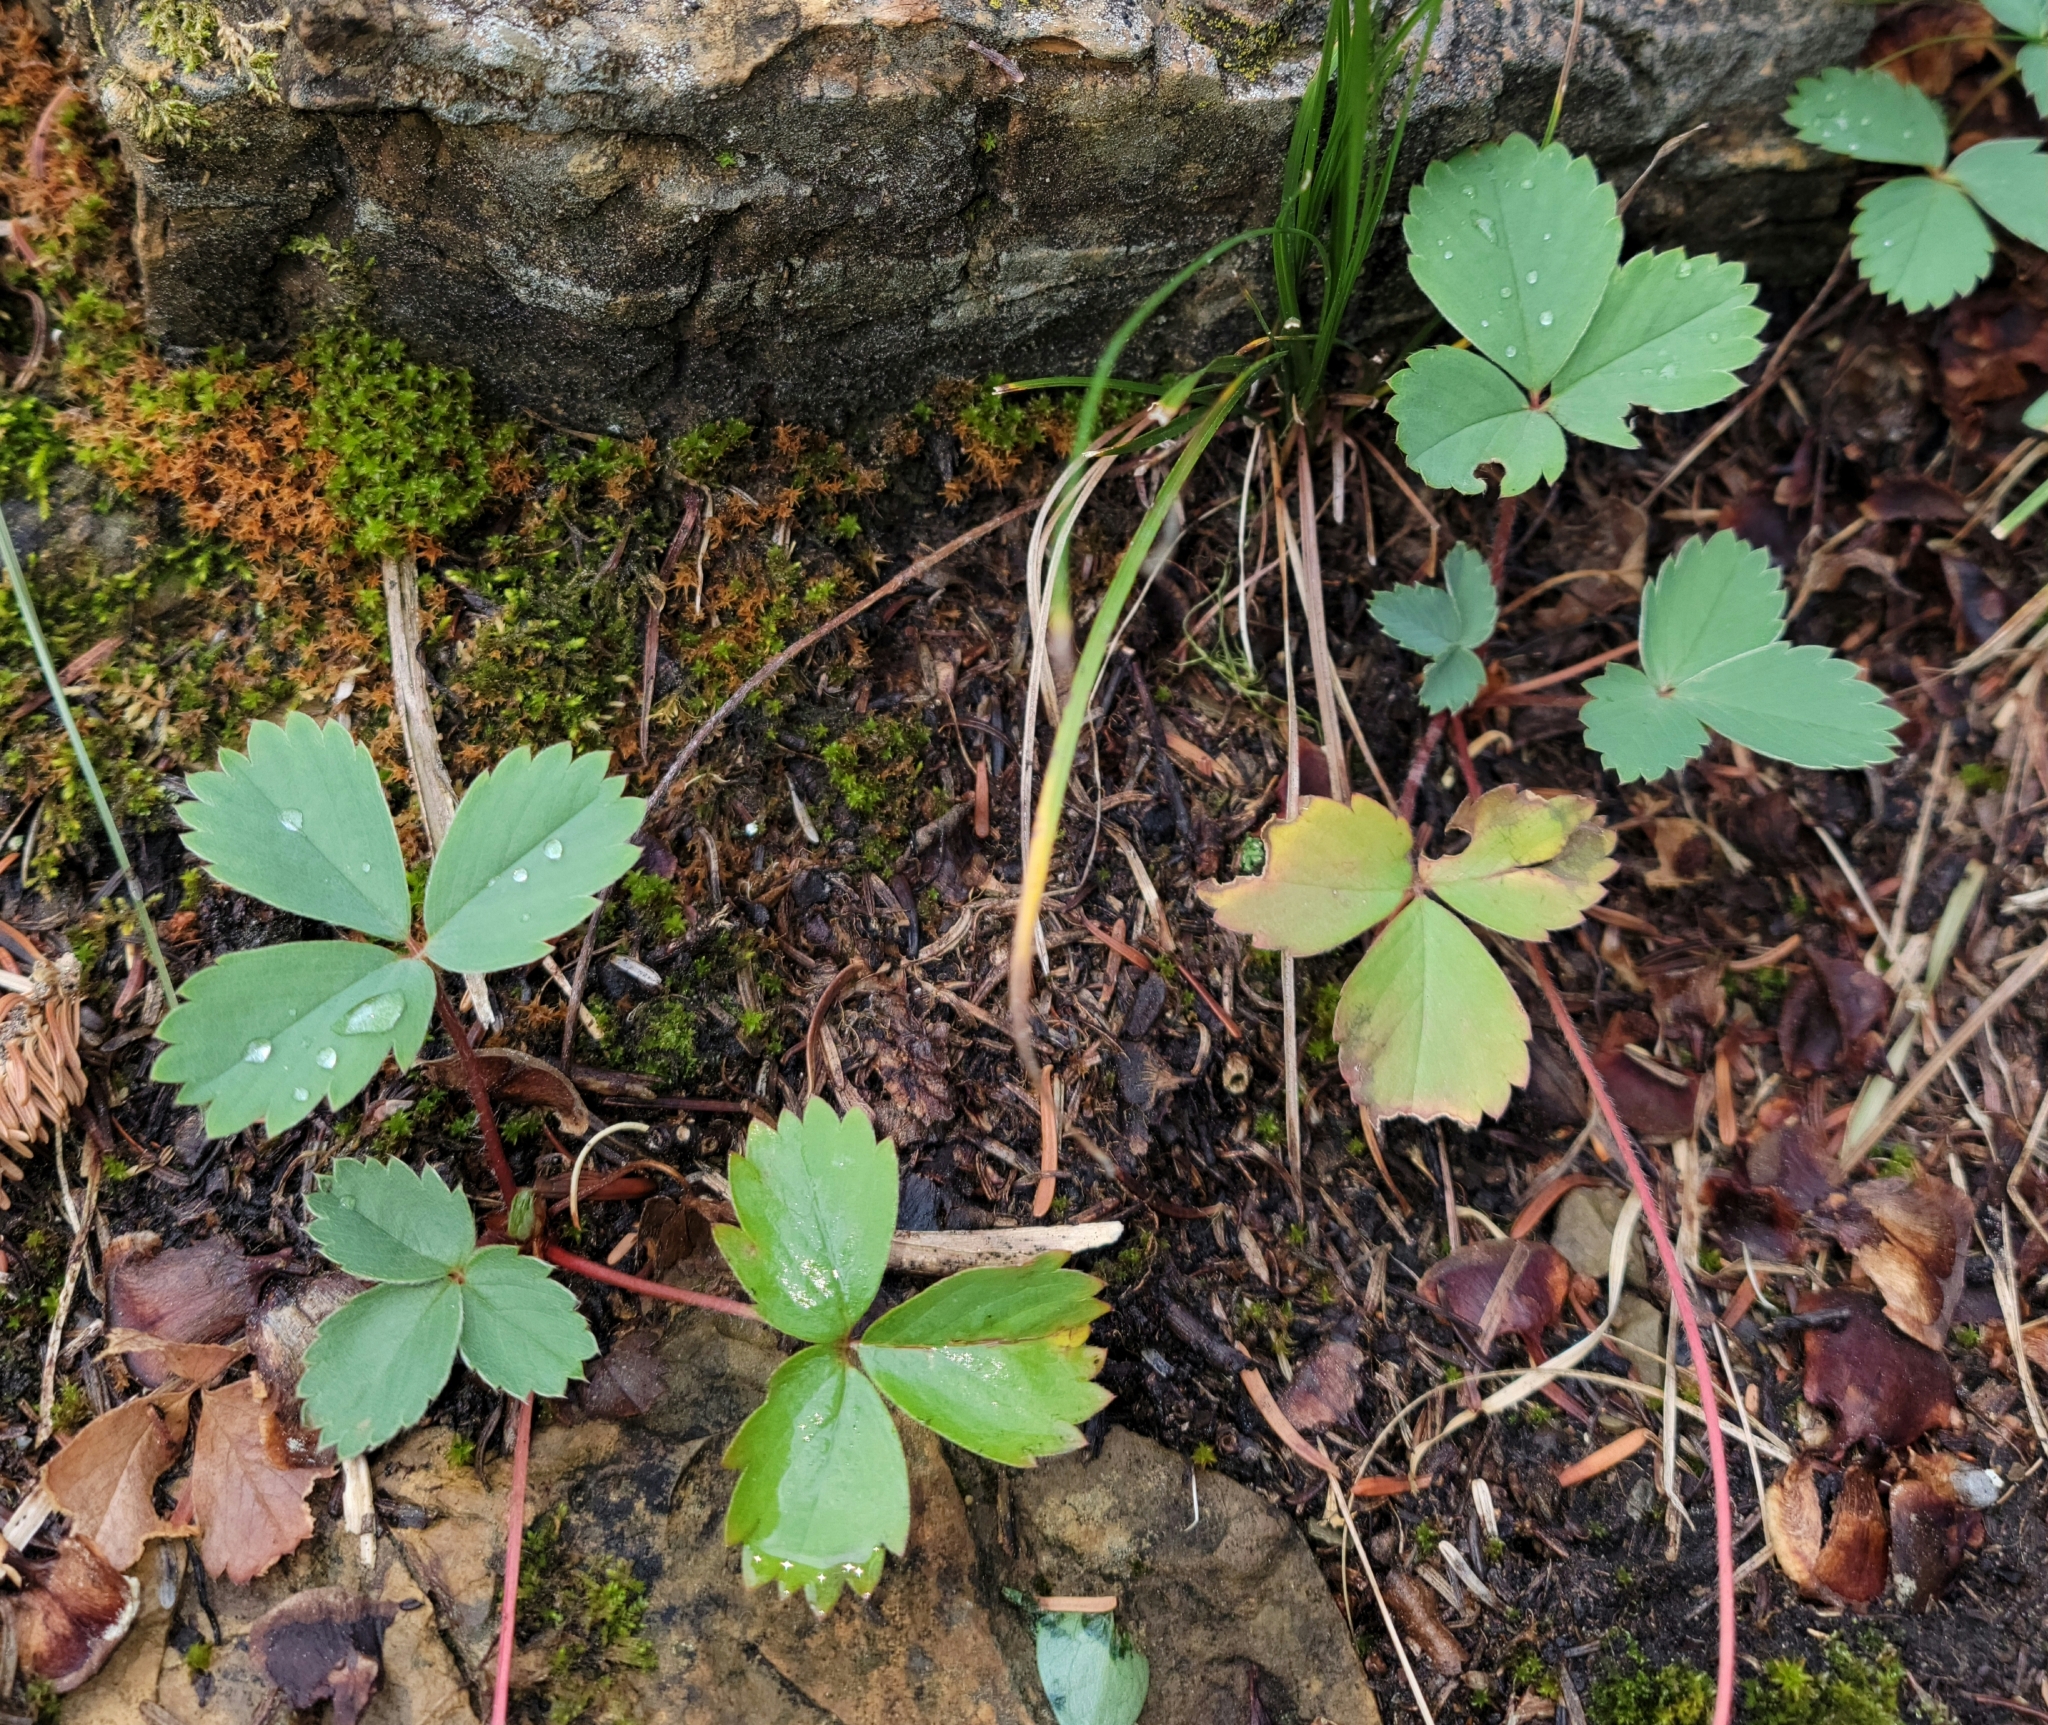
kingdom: Plantae
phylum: Tracheophyta
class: Magnoliopsida
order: Rosales
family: Rosaceae
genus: Fragaria
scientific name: Fragaria virginiana
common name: Thickleaved wild strawberry
